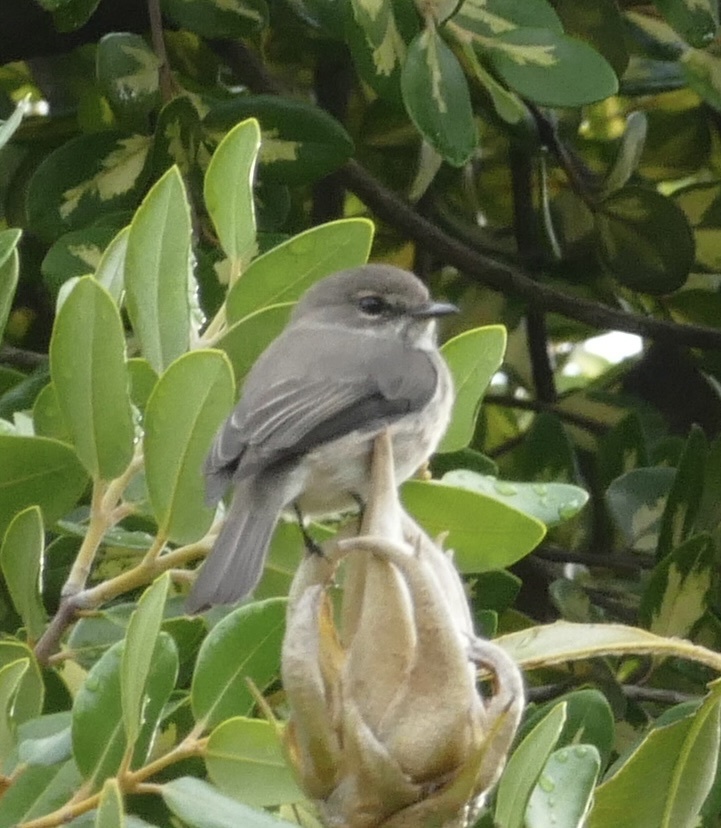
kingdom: Animalia
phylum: Chordata
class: Aves
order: Passeriformes
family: Muscicapidae
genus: Muscicapa
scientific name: Muscicapa adusta
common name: African dusky flycatcher
